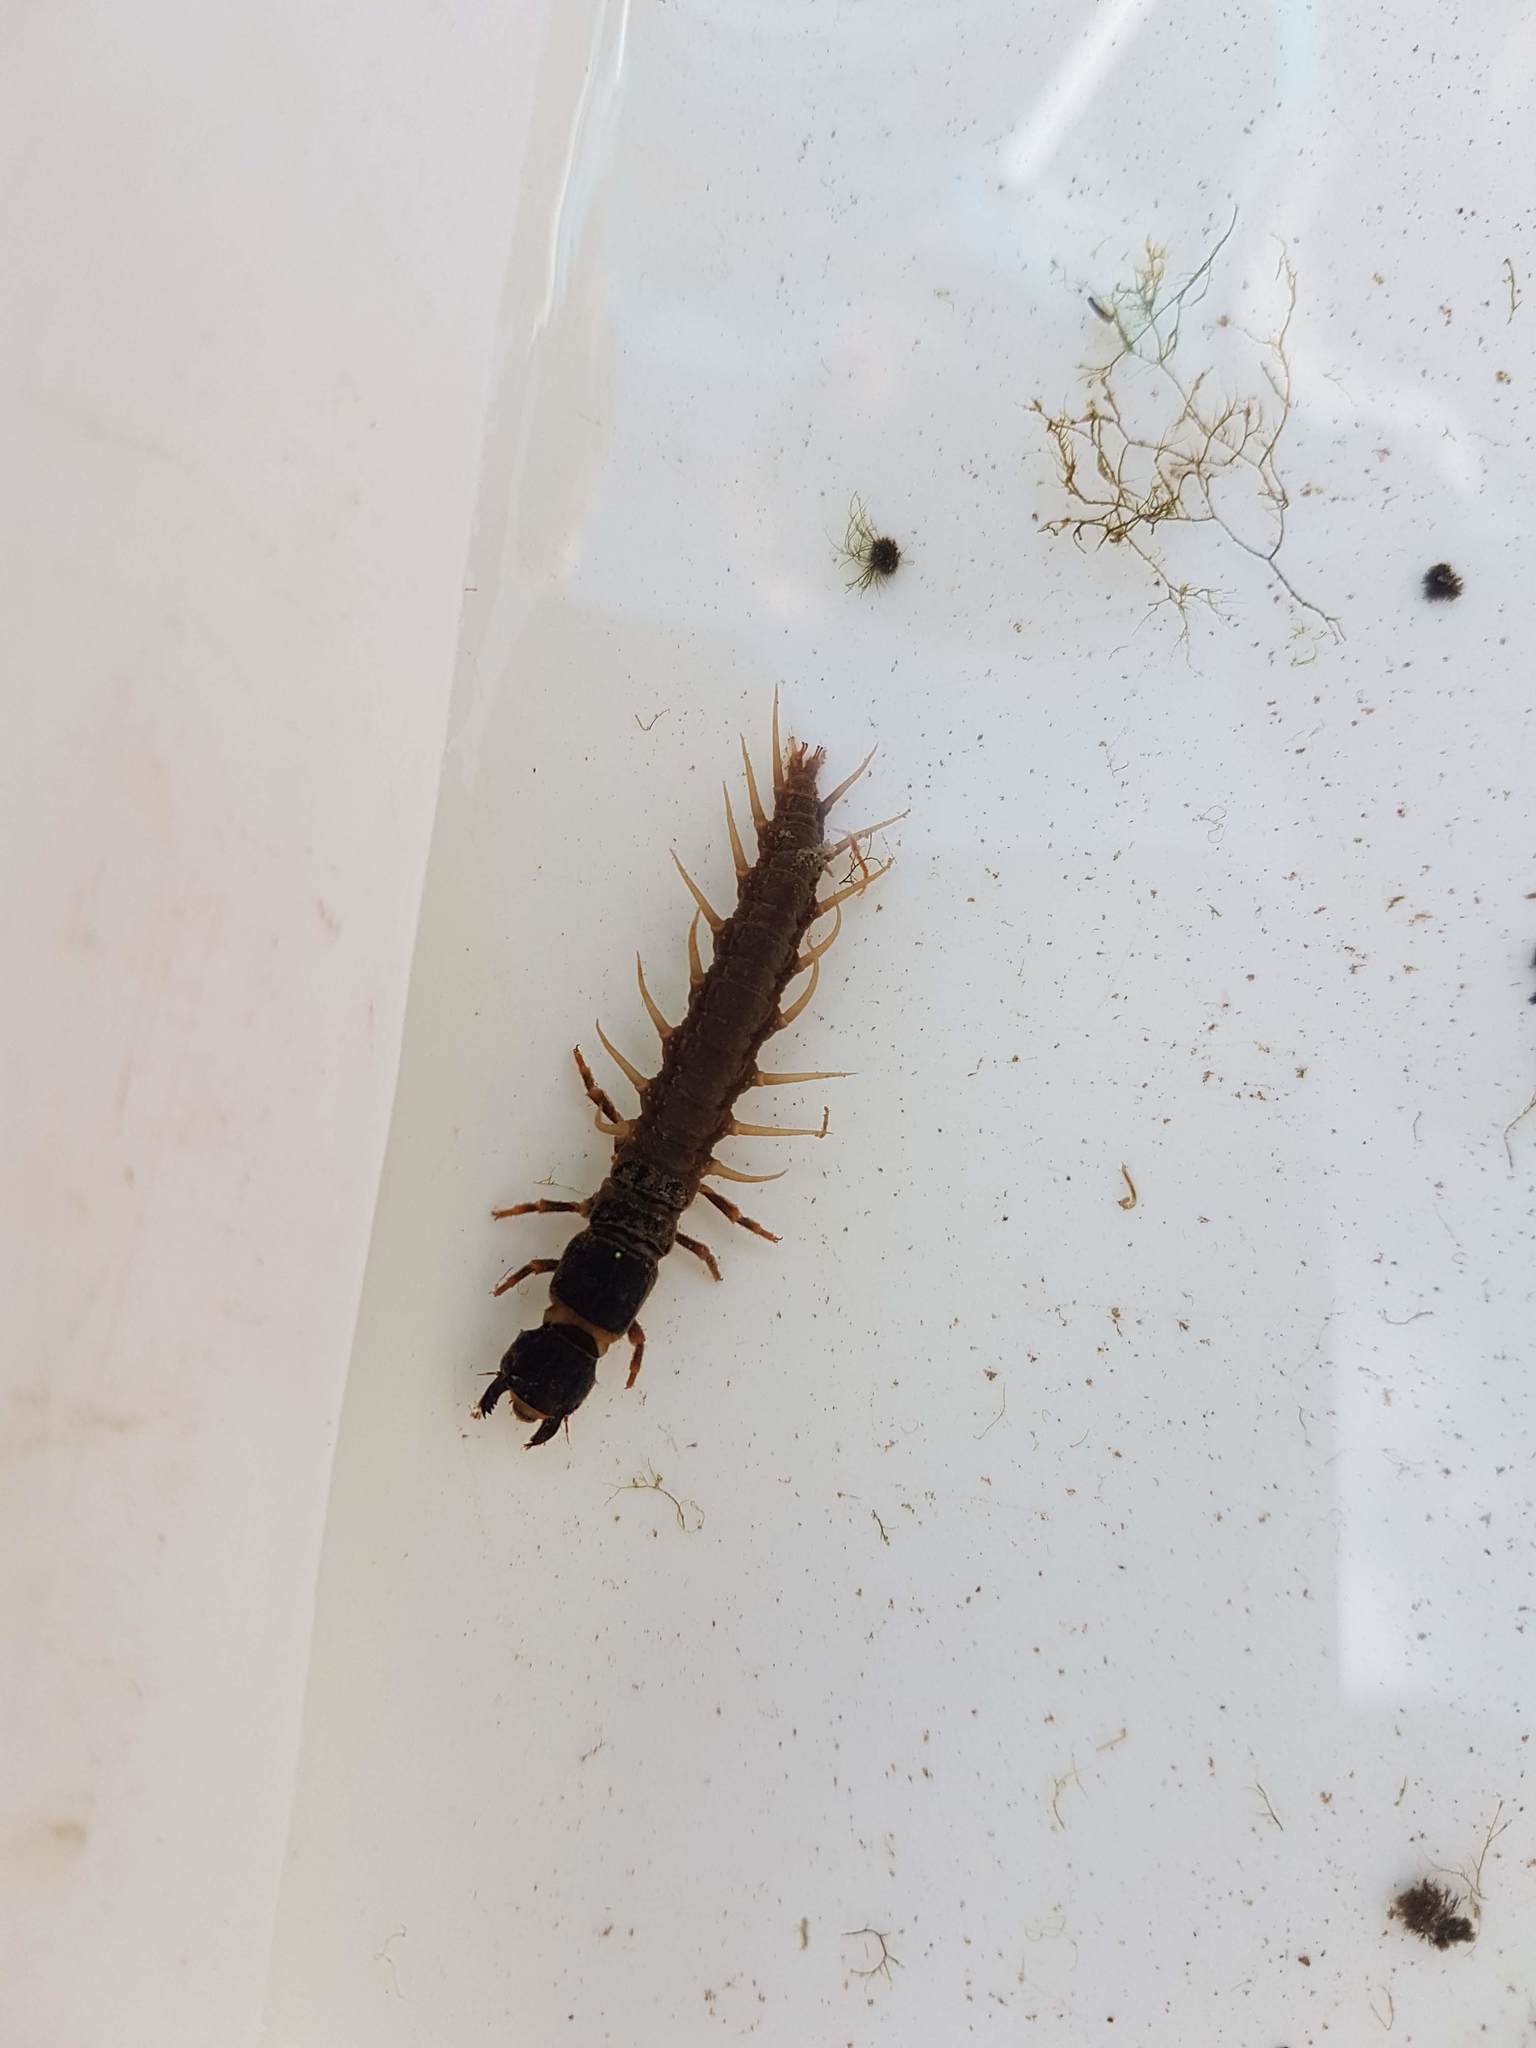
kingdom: Animalia
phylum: Arthropoda
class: Insecta
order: Megaloptera
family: Corydalidae
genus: Archichauliodes
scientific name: Archichauliodes diversus
